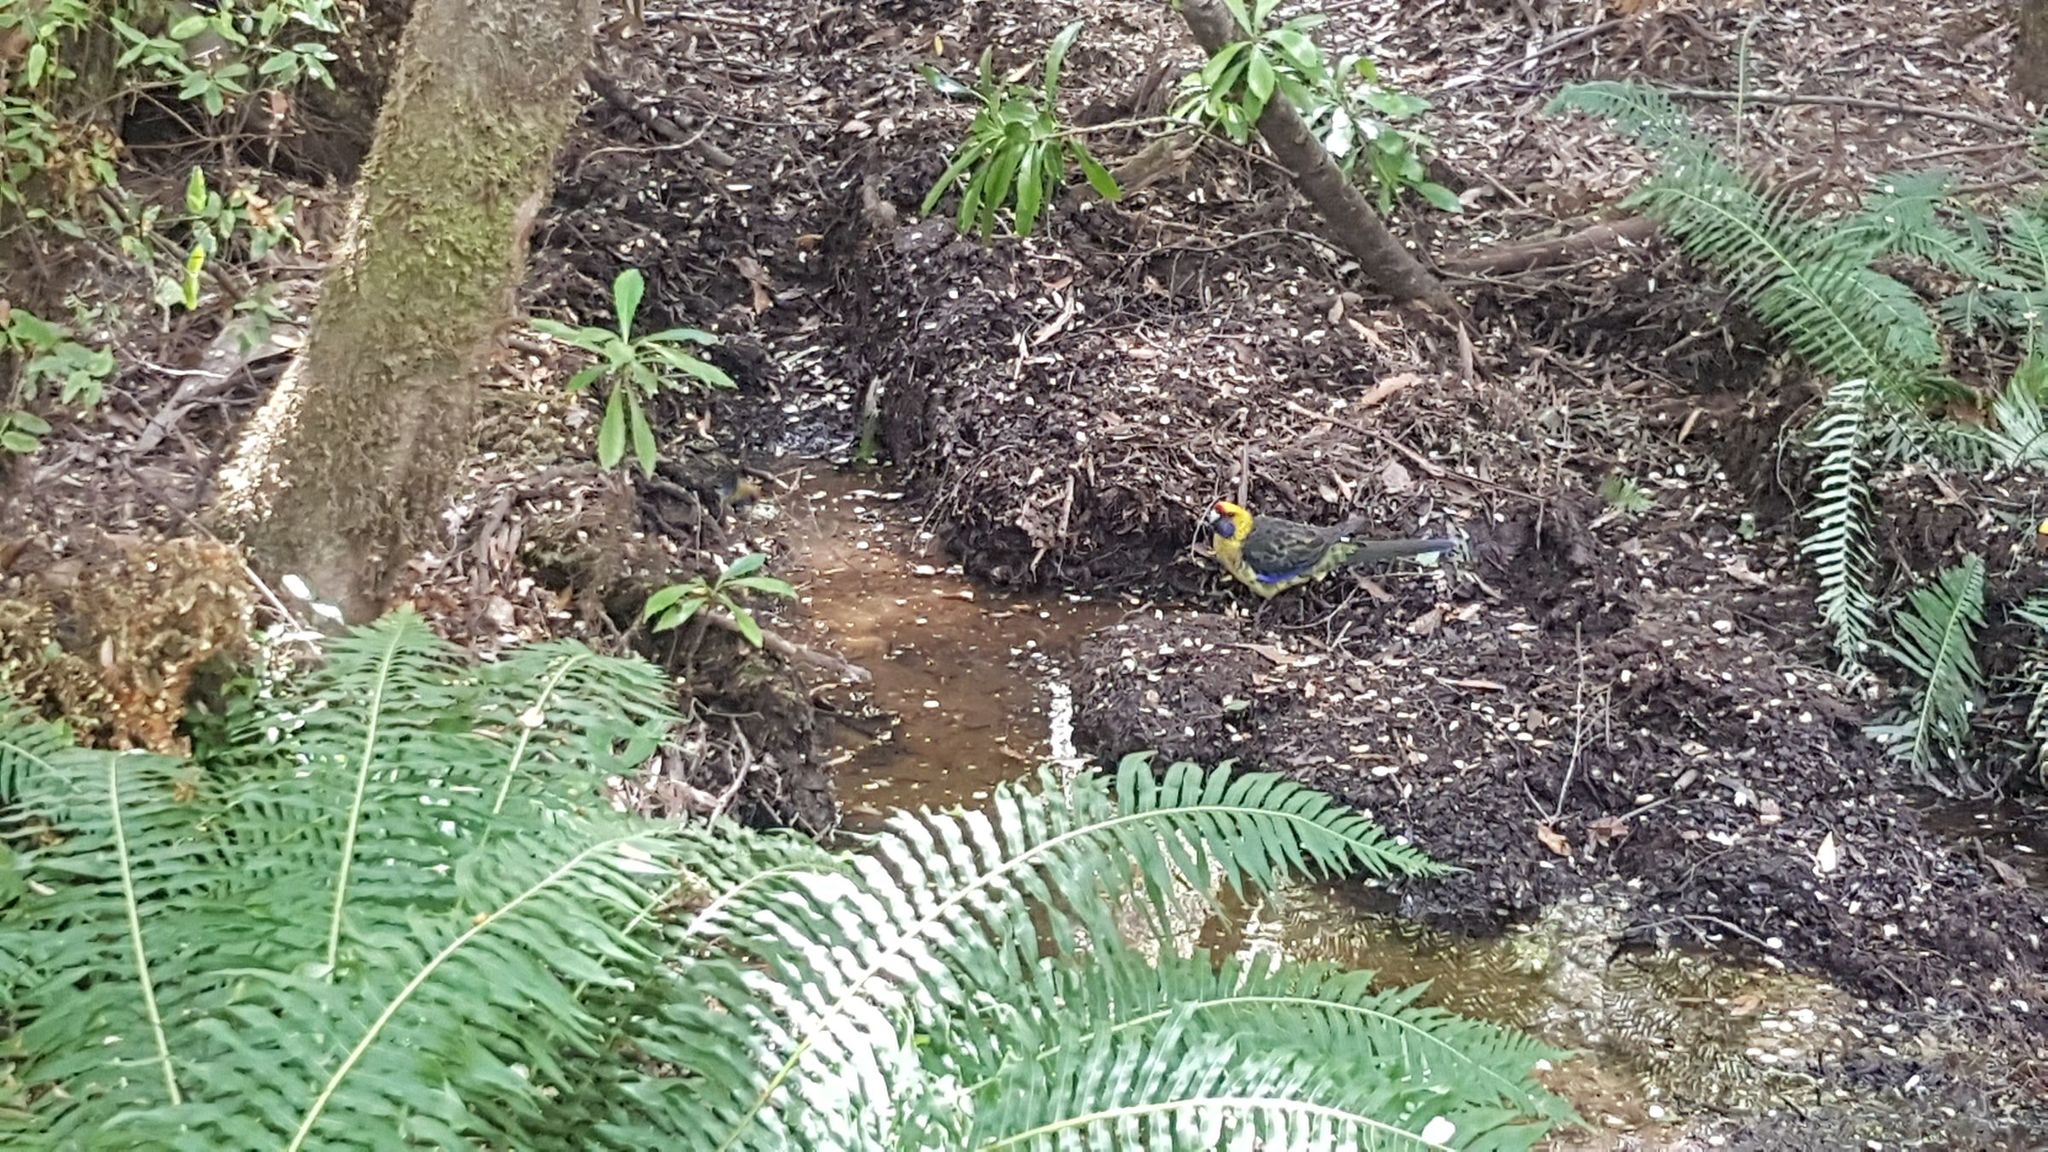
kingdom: Animalia
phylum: Chordata
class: Aves
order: Psittaciformes
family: Psittacidae
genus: Platycercus
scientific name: Platycercus caledonicus
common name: Green rosella
